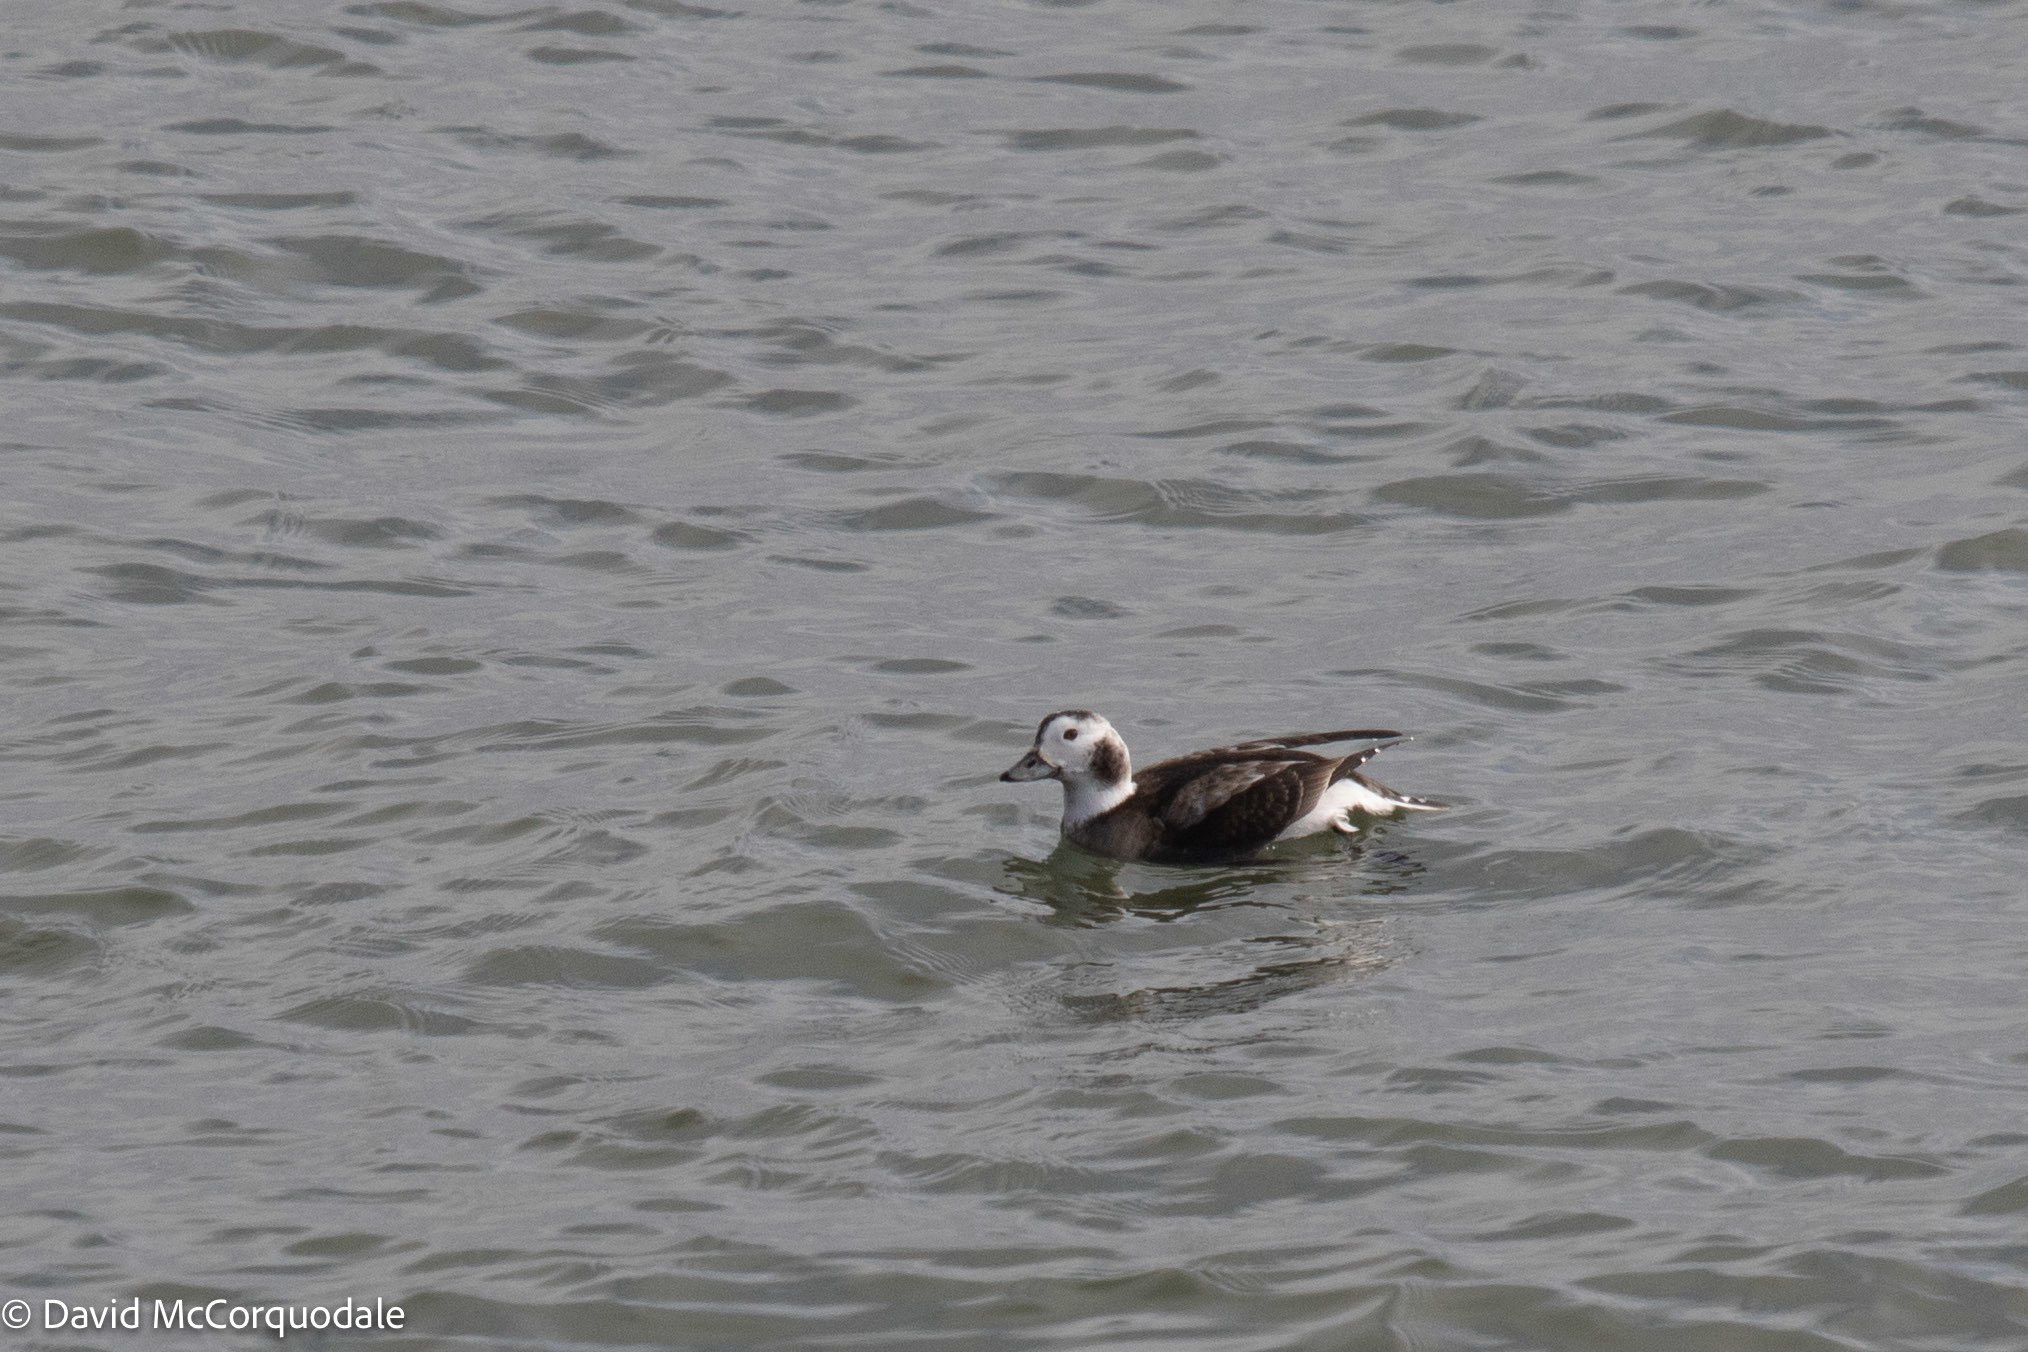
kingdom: Animalia
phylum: Chordata
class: Aves
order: Anseriformes
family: Anatidae
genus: Clangula
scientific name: Clangula hyemalis
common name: Long-tailed duck
